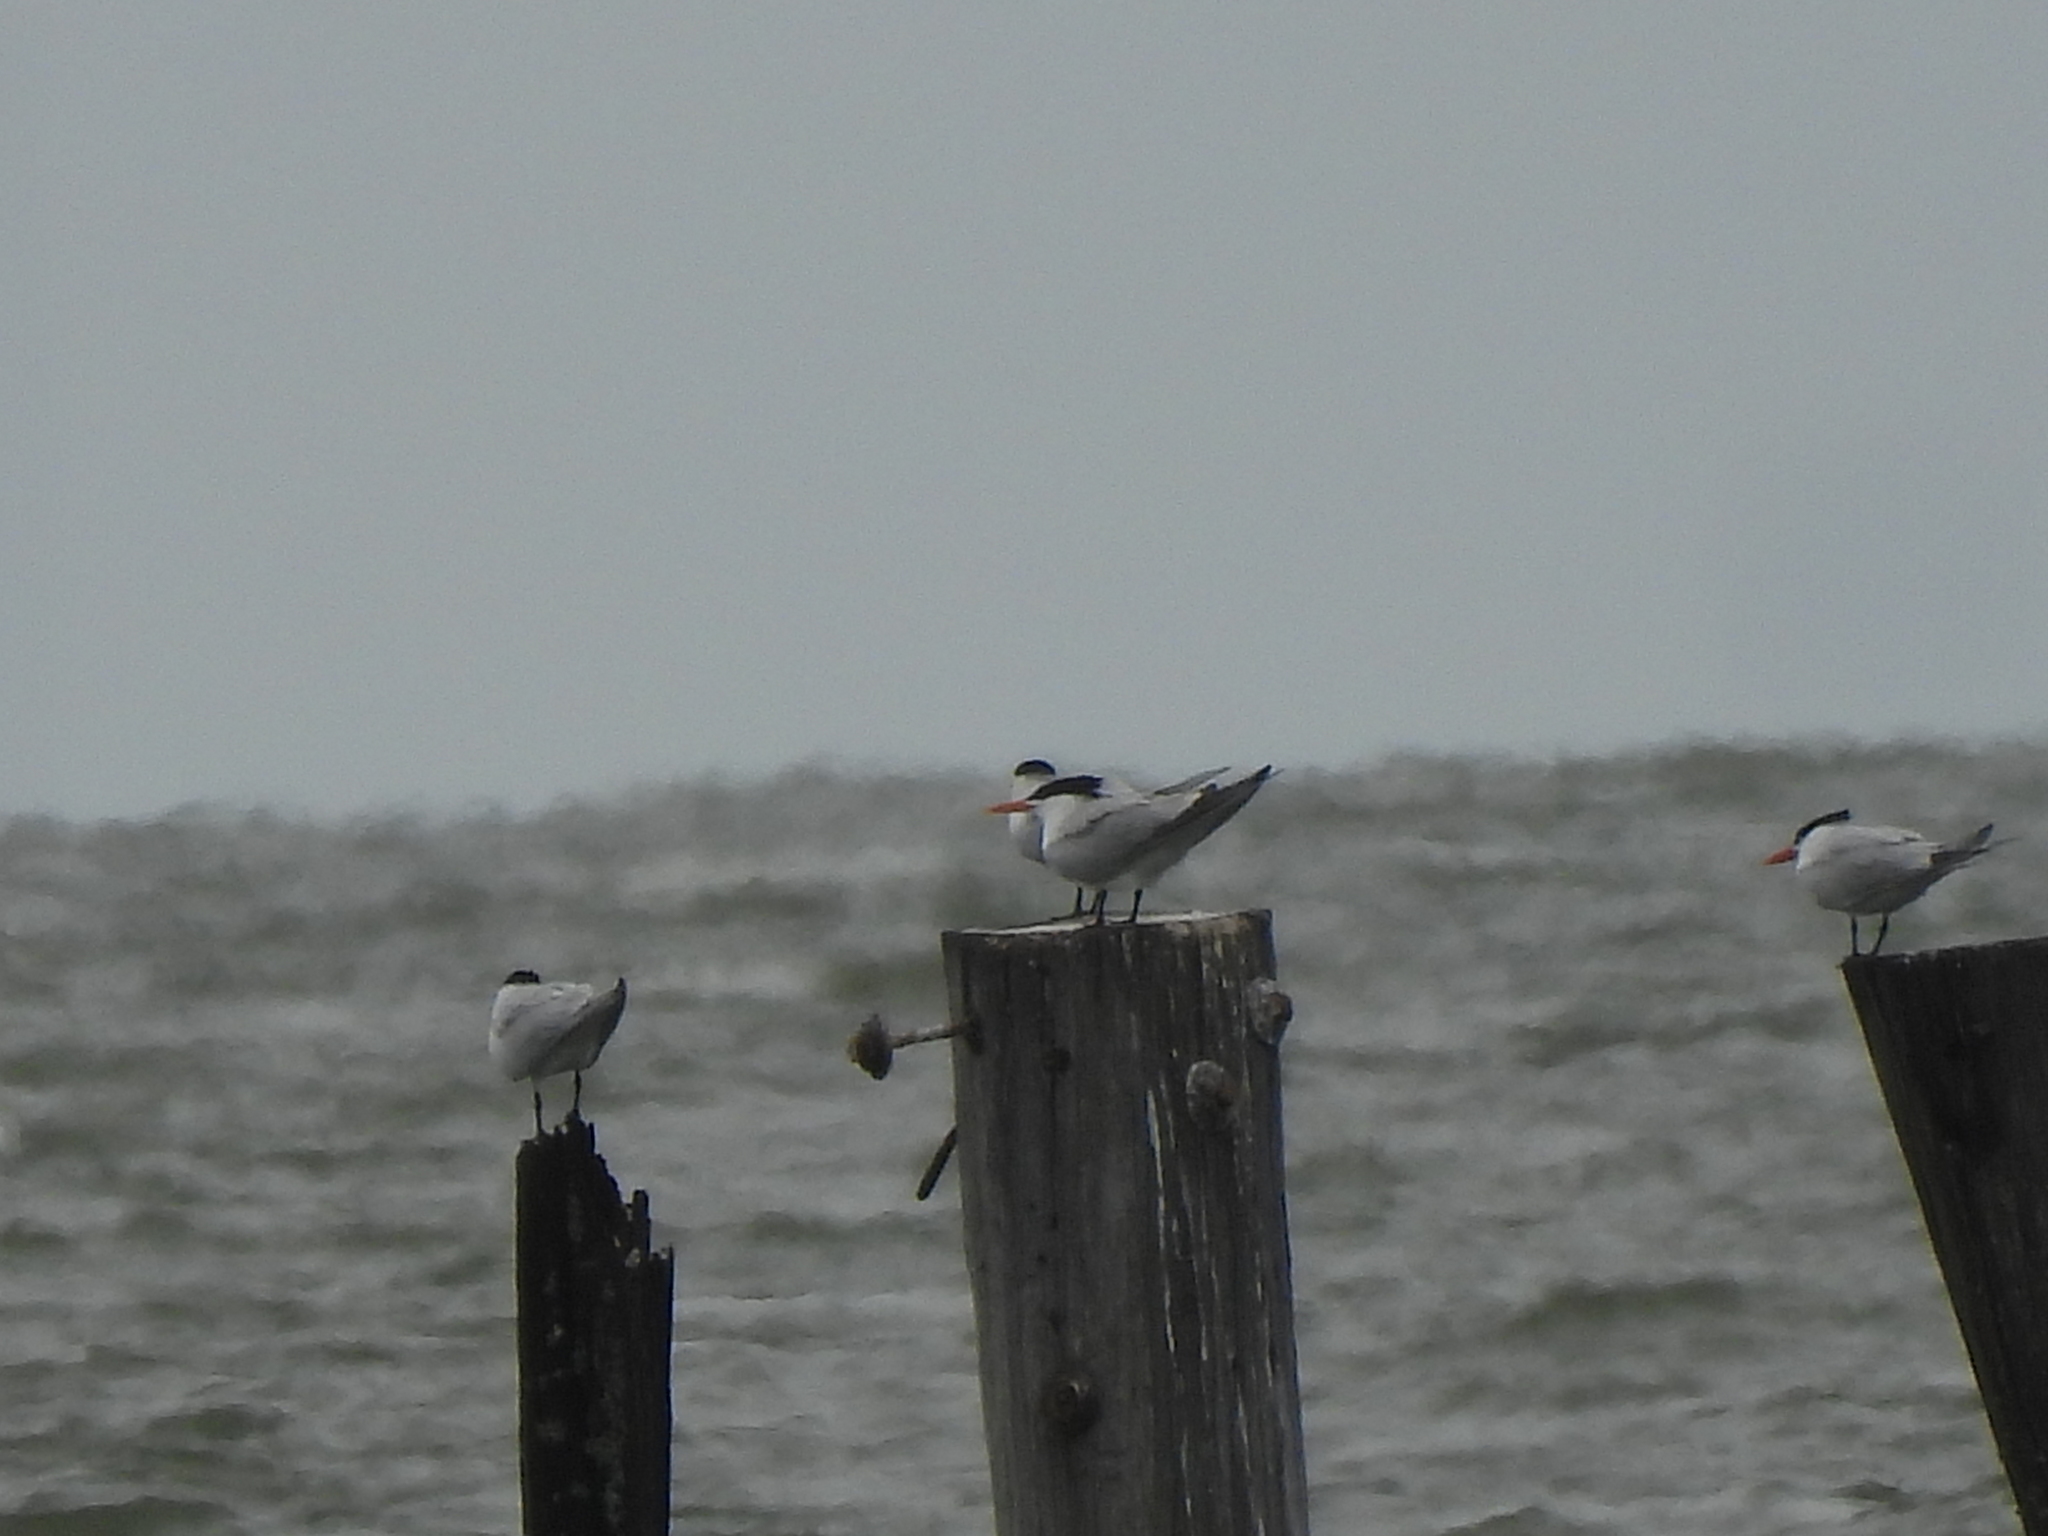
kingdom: Animalia
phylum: Chordata
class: Aves
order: Charadriiformes
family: Laridae
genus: Thalasseus
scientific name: Thalasseus maximus
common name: Royal tern
